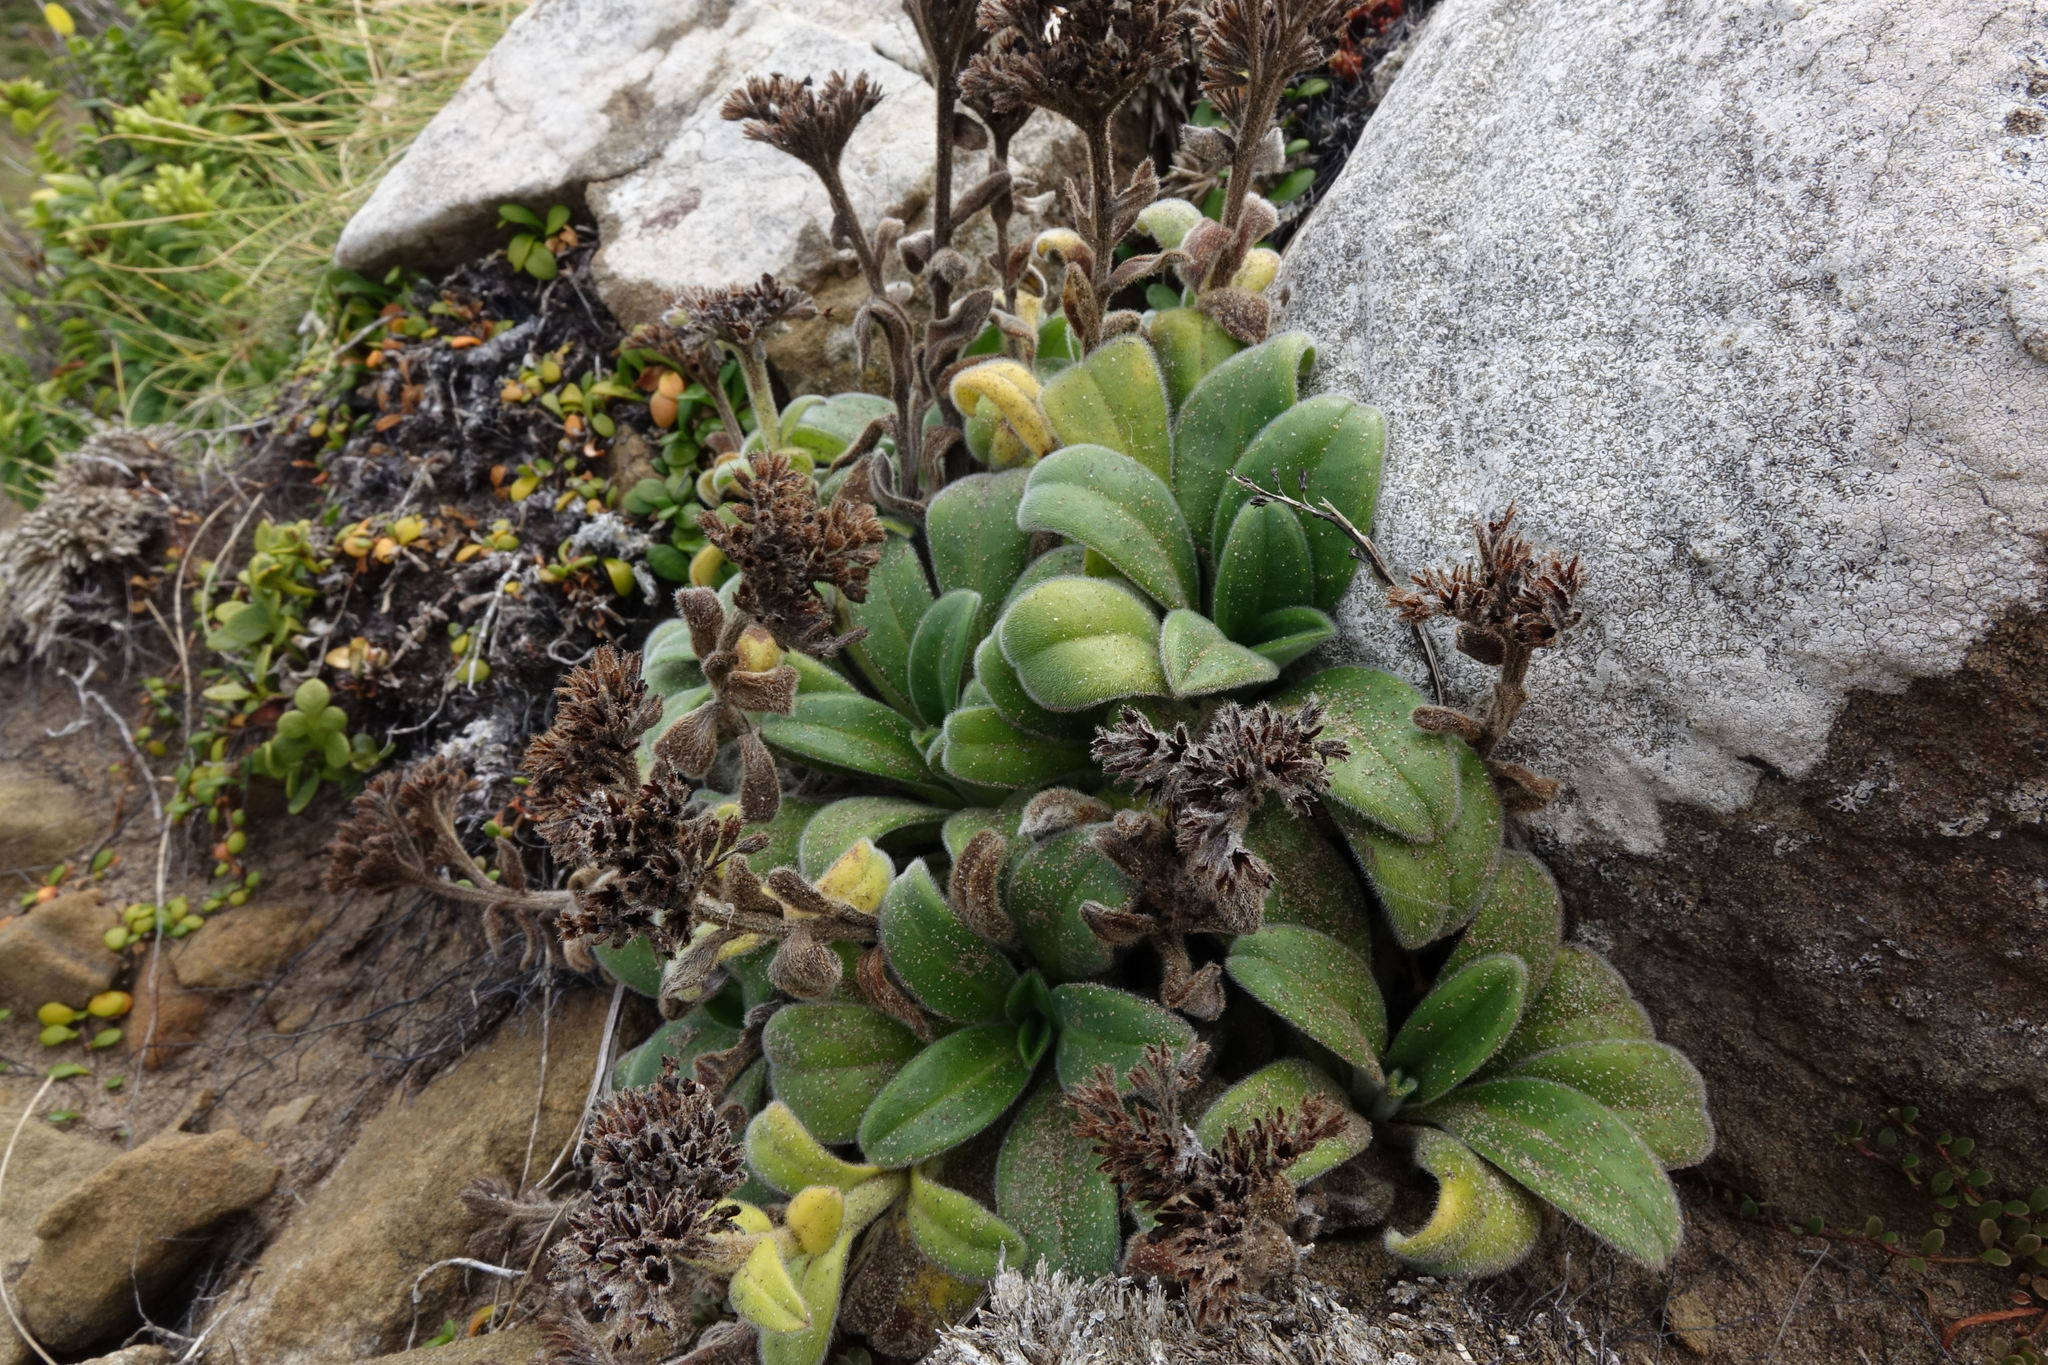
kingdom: Plantae
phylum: Tracheophyta
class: Magnoliopsida
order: Boraginales
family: Boraginaceae
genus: Myosotis
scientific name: Myosotis rakiura
